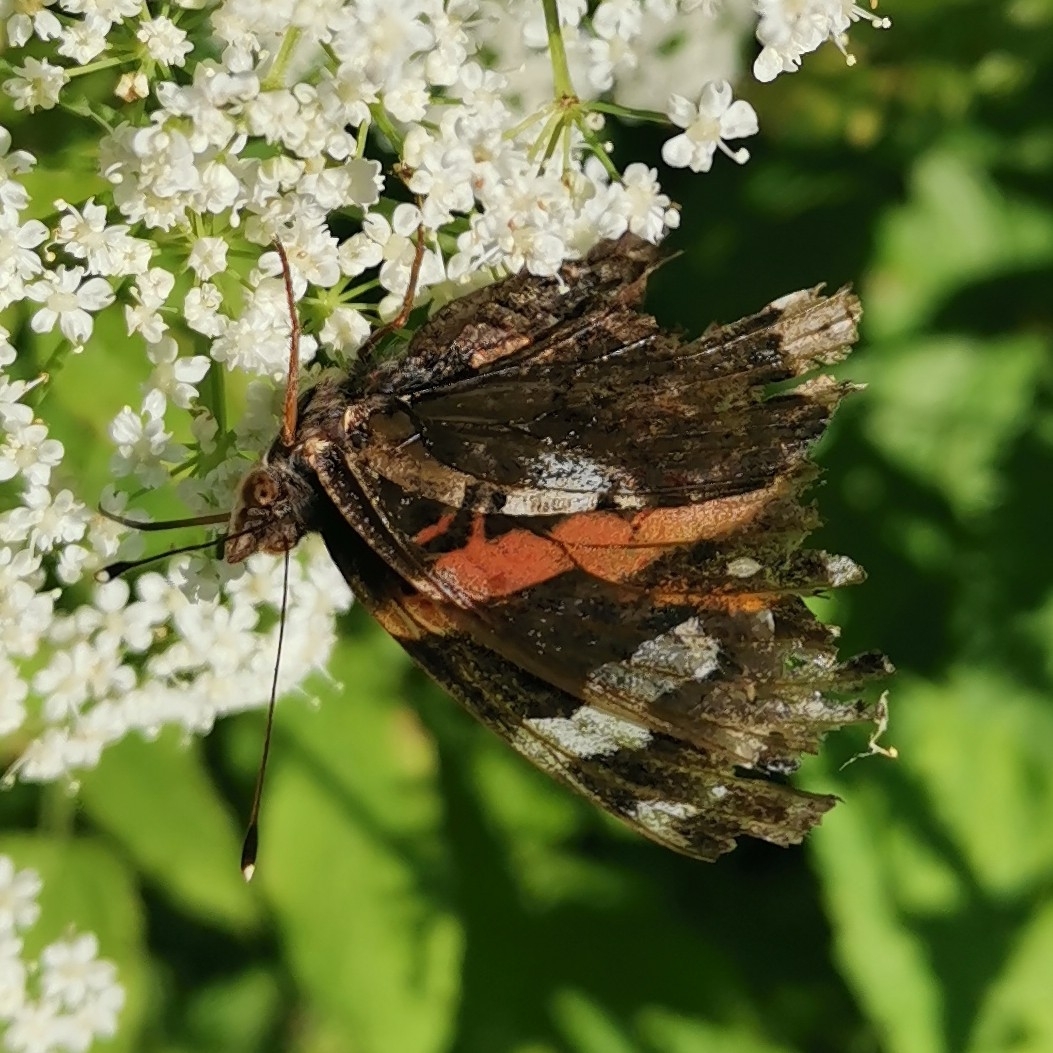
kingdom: Animalia
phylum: Arthropoda
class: Insecta
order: Lepidoptera
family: Nymphalidae
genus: Vanessa
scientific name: Vanessa atalanta
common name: Red admiral
